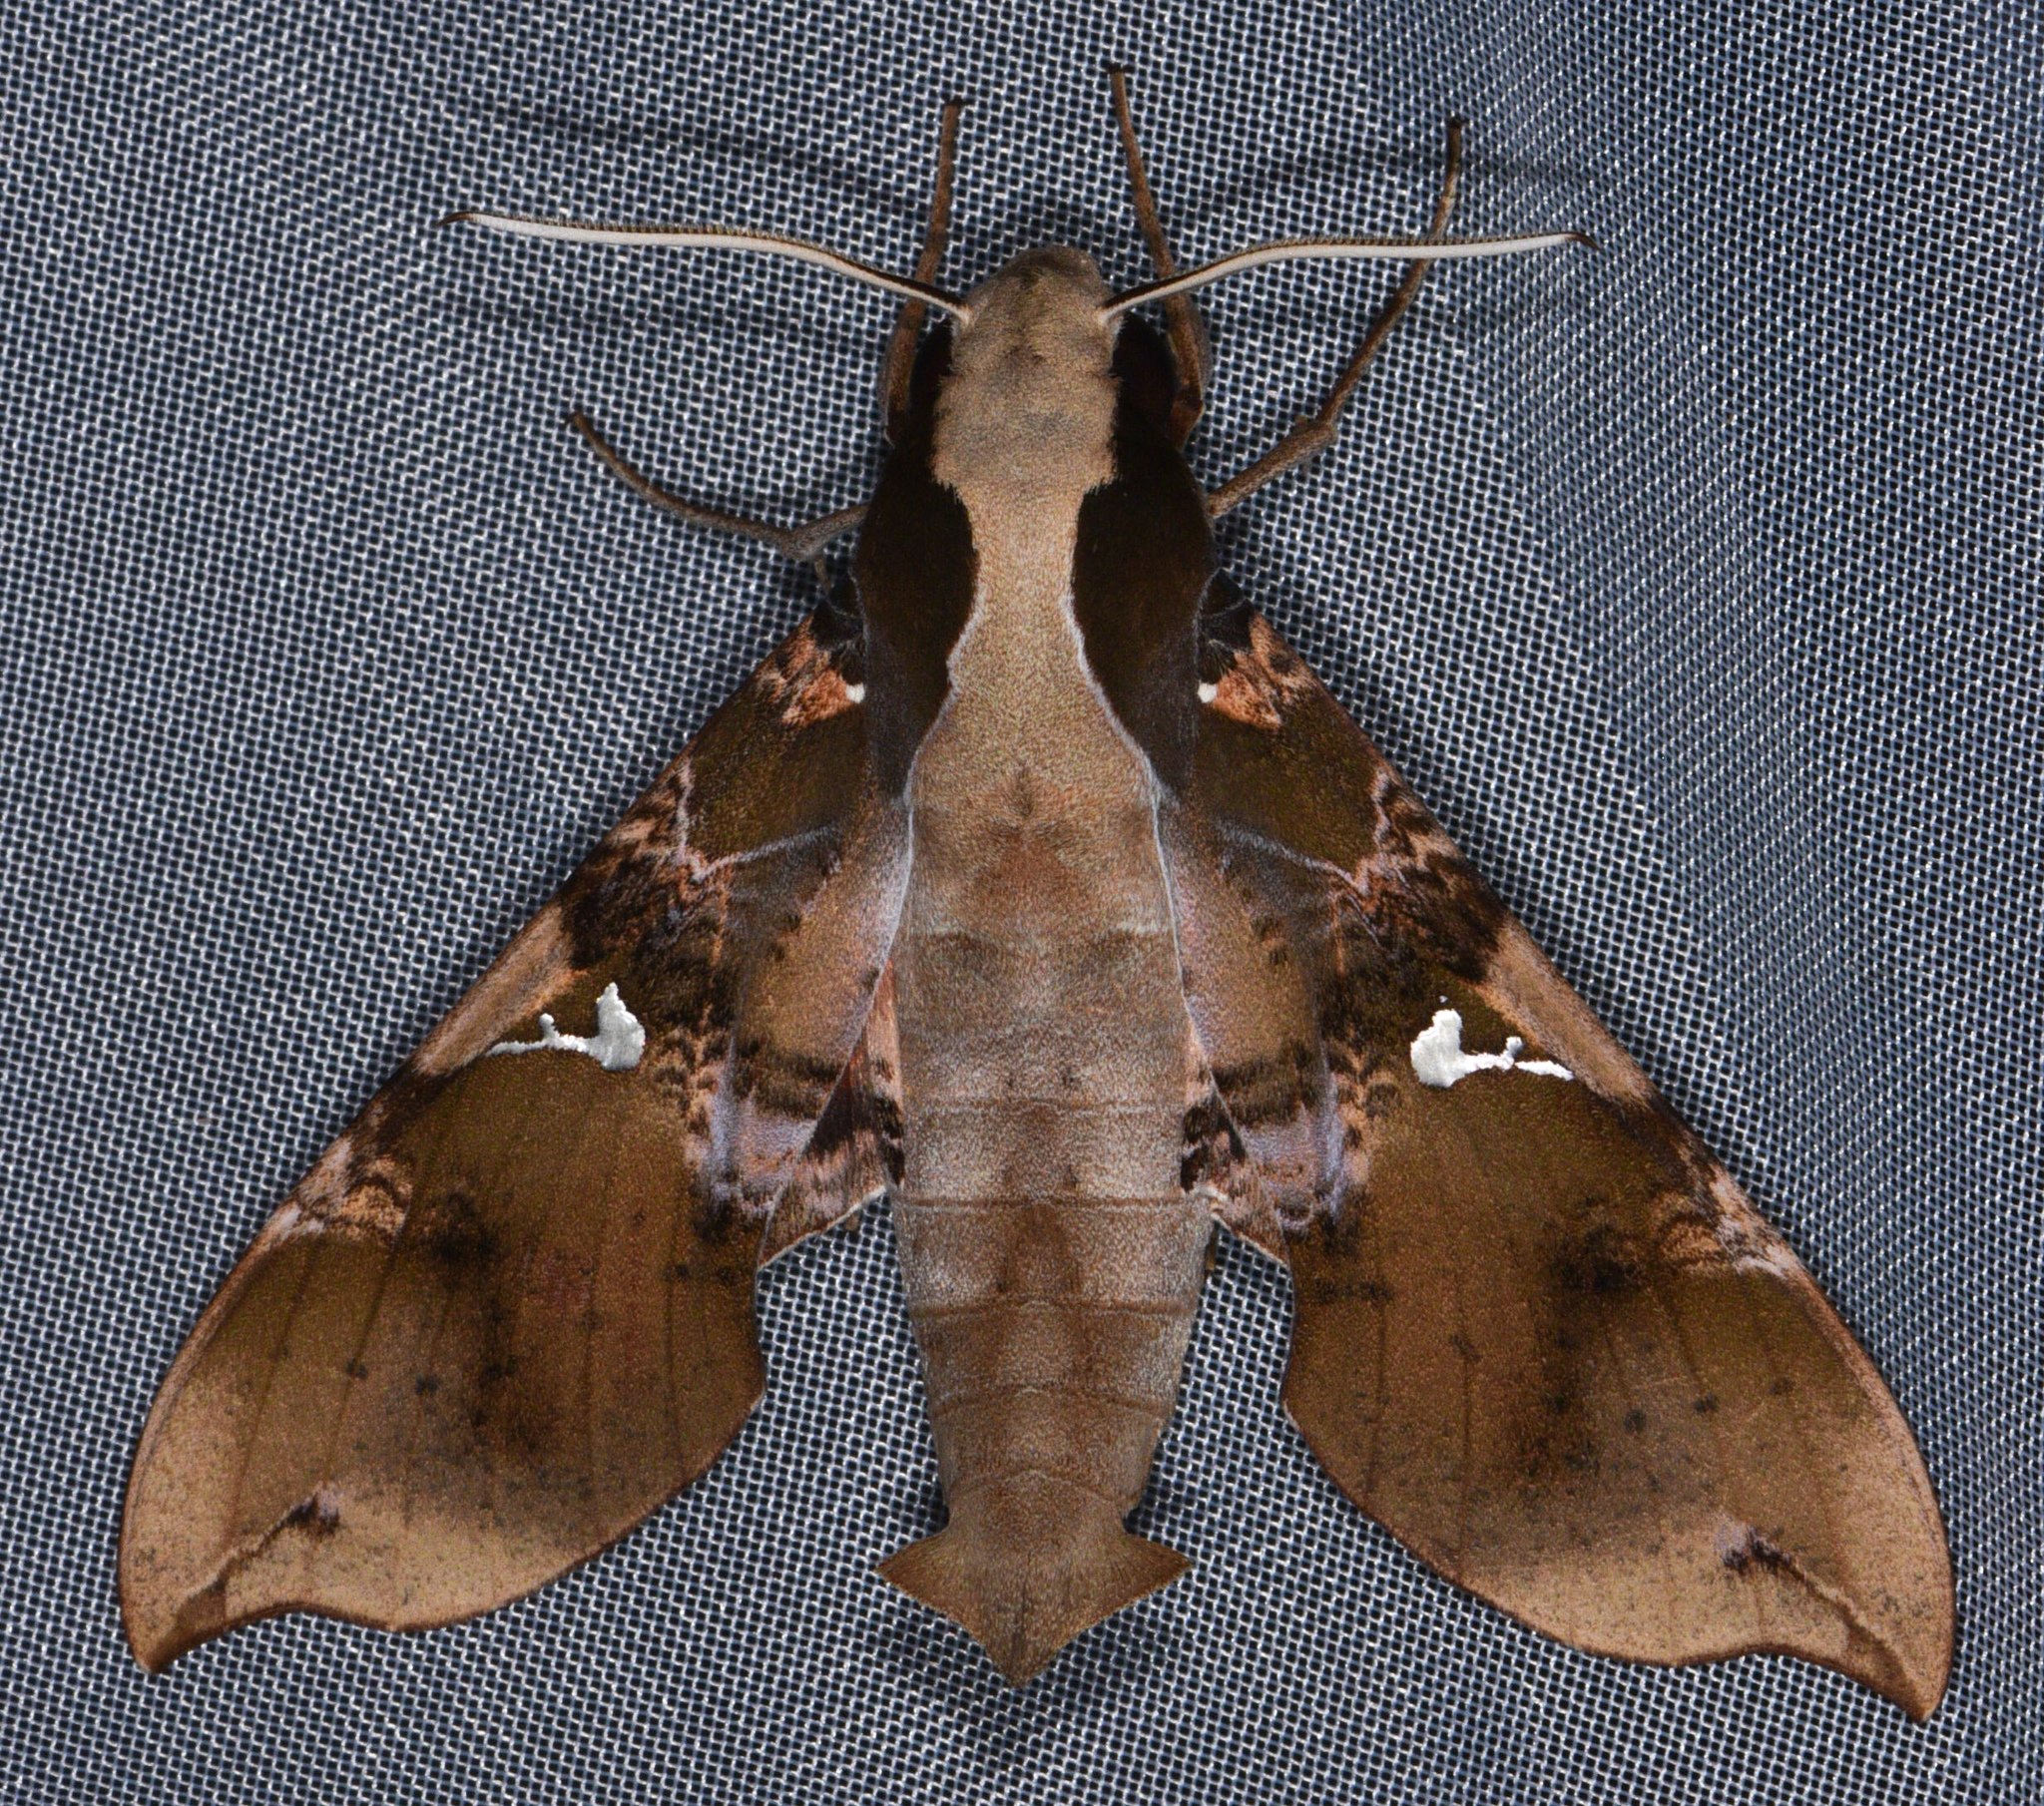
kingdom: Animalia
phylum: Arthropoda
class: Insecta
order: Lepidoptera
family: Sphingidae
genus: Callionima
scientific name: Callionima parce
